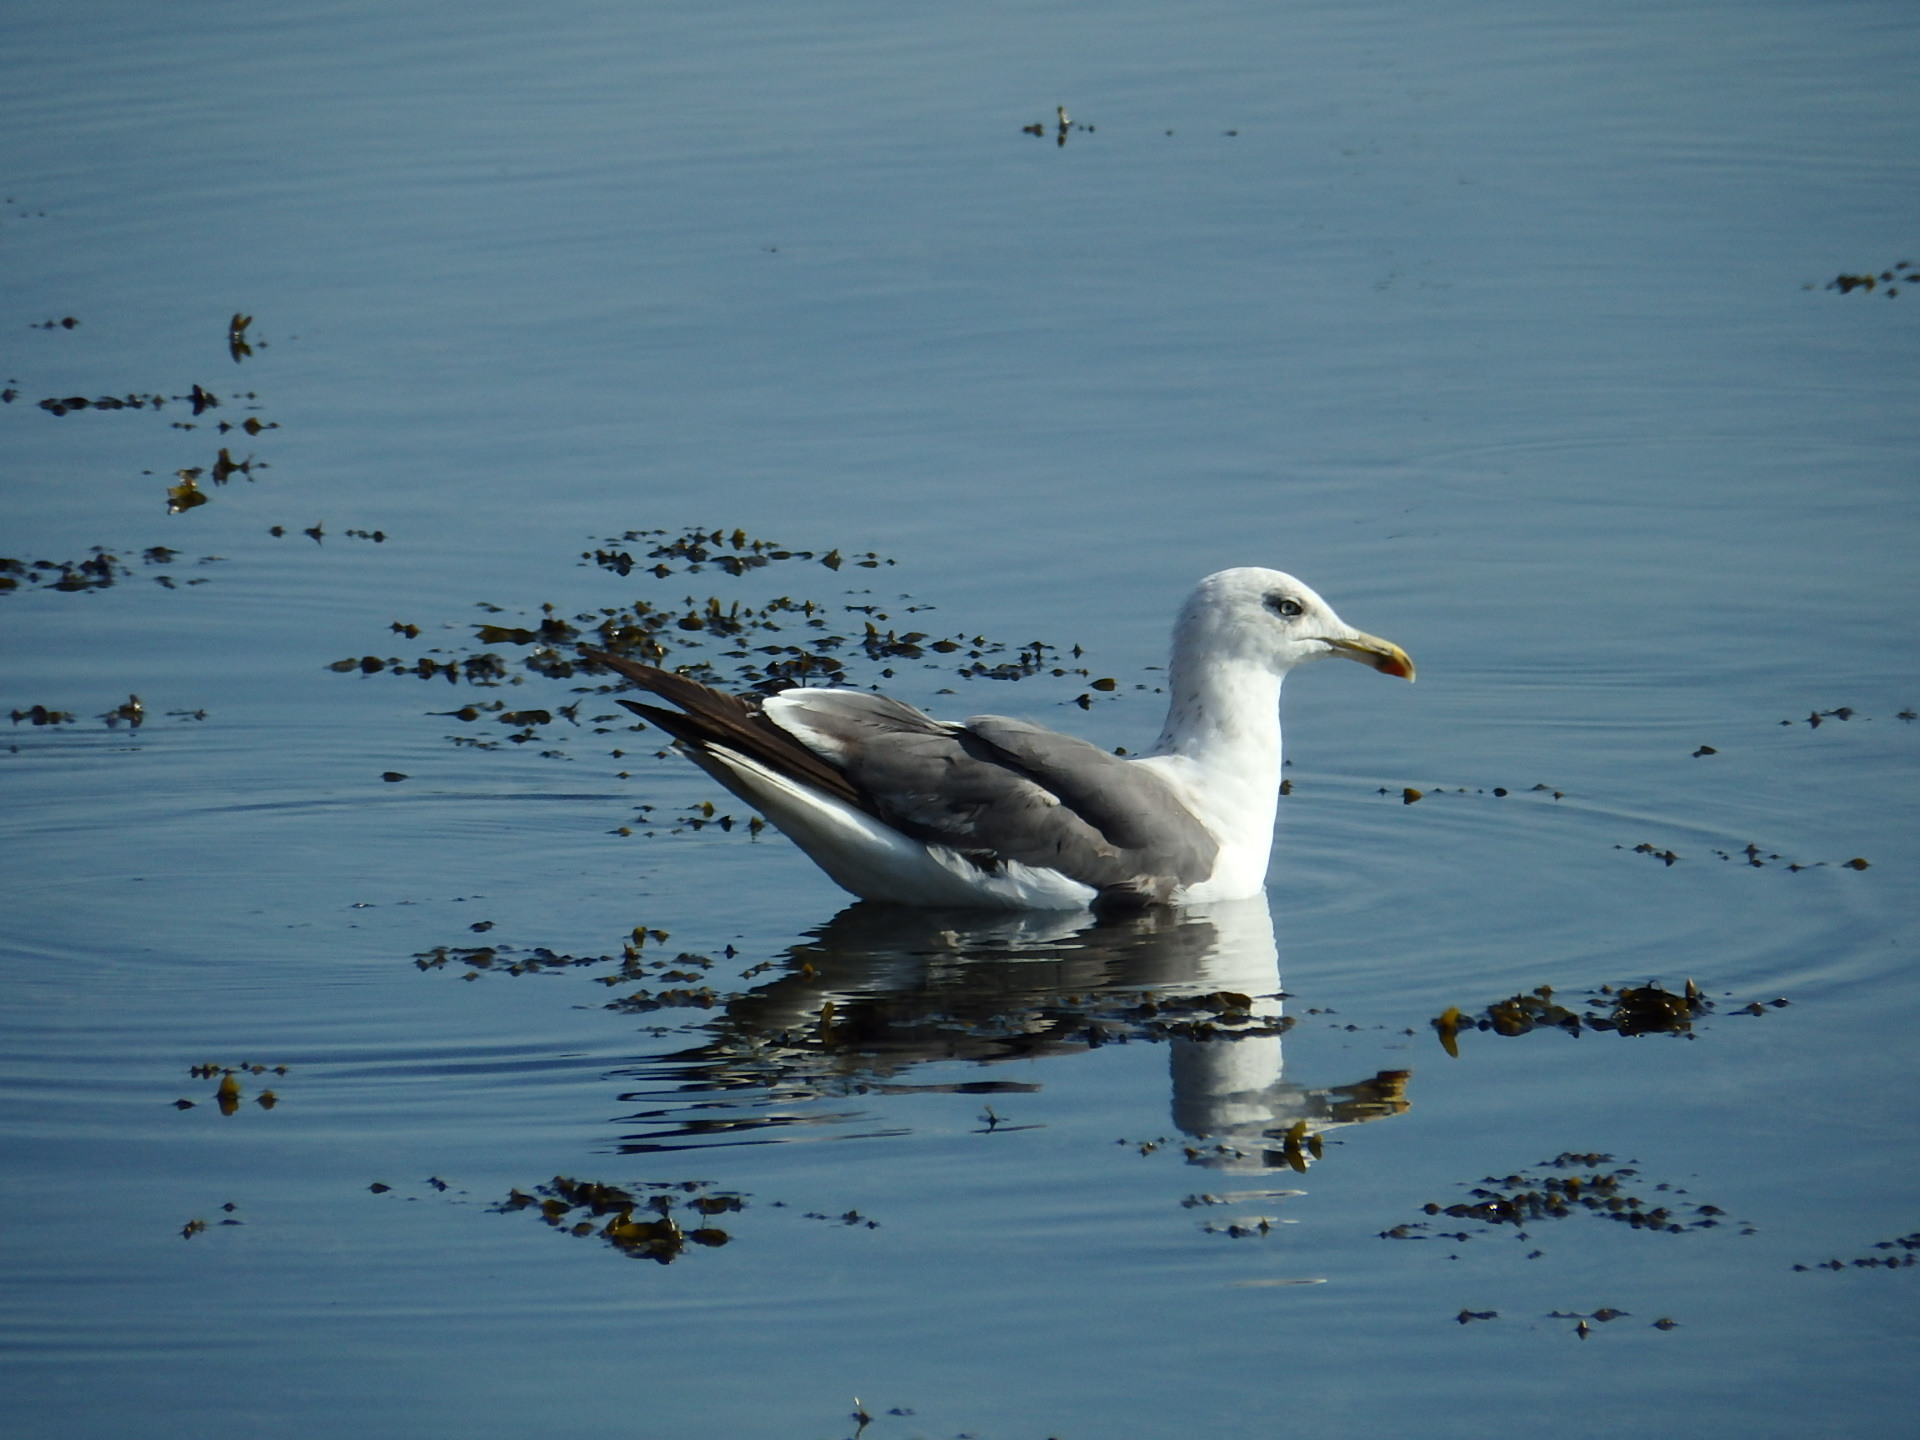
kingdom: Animalia
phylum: Chordata
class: Aves
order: Charadriiformes
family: Laridae
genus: Larus
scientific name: Larus michahellis
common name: Yellow-legged gull
